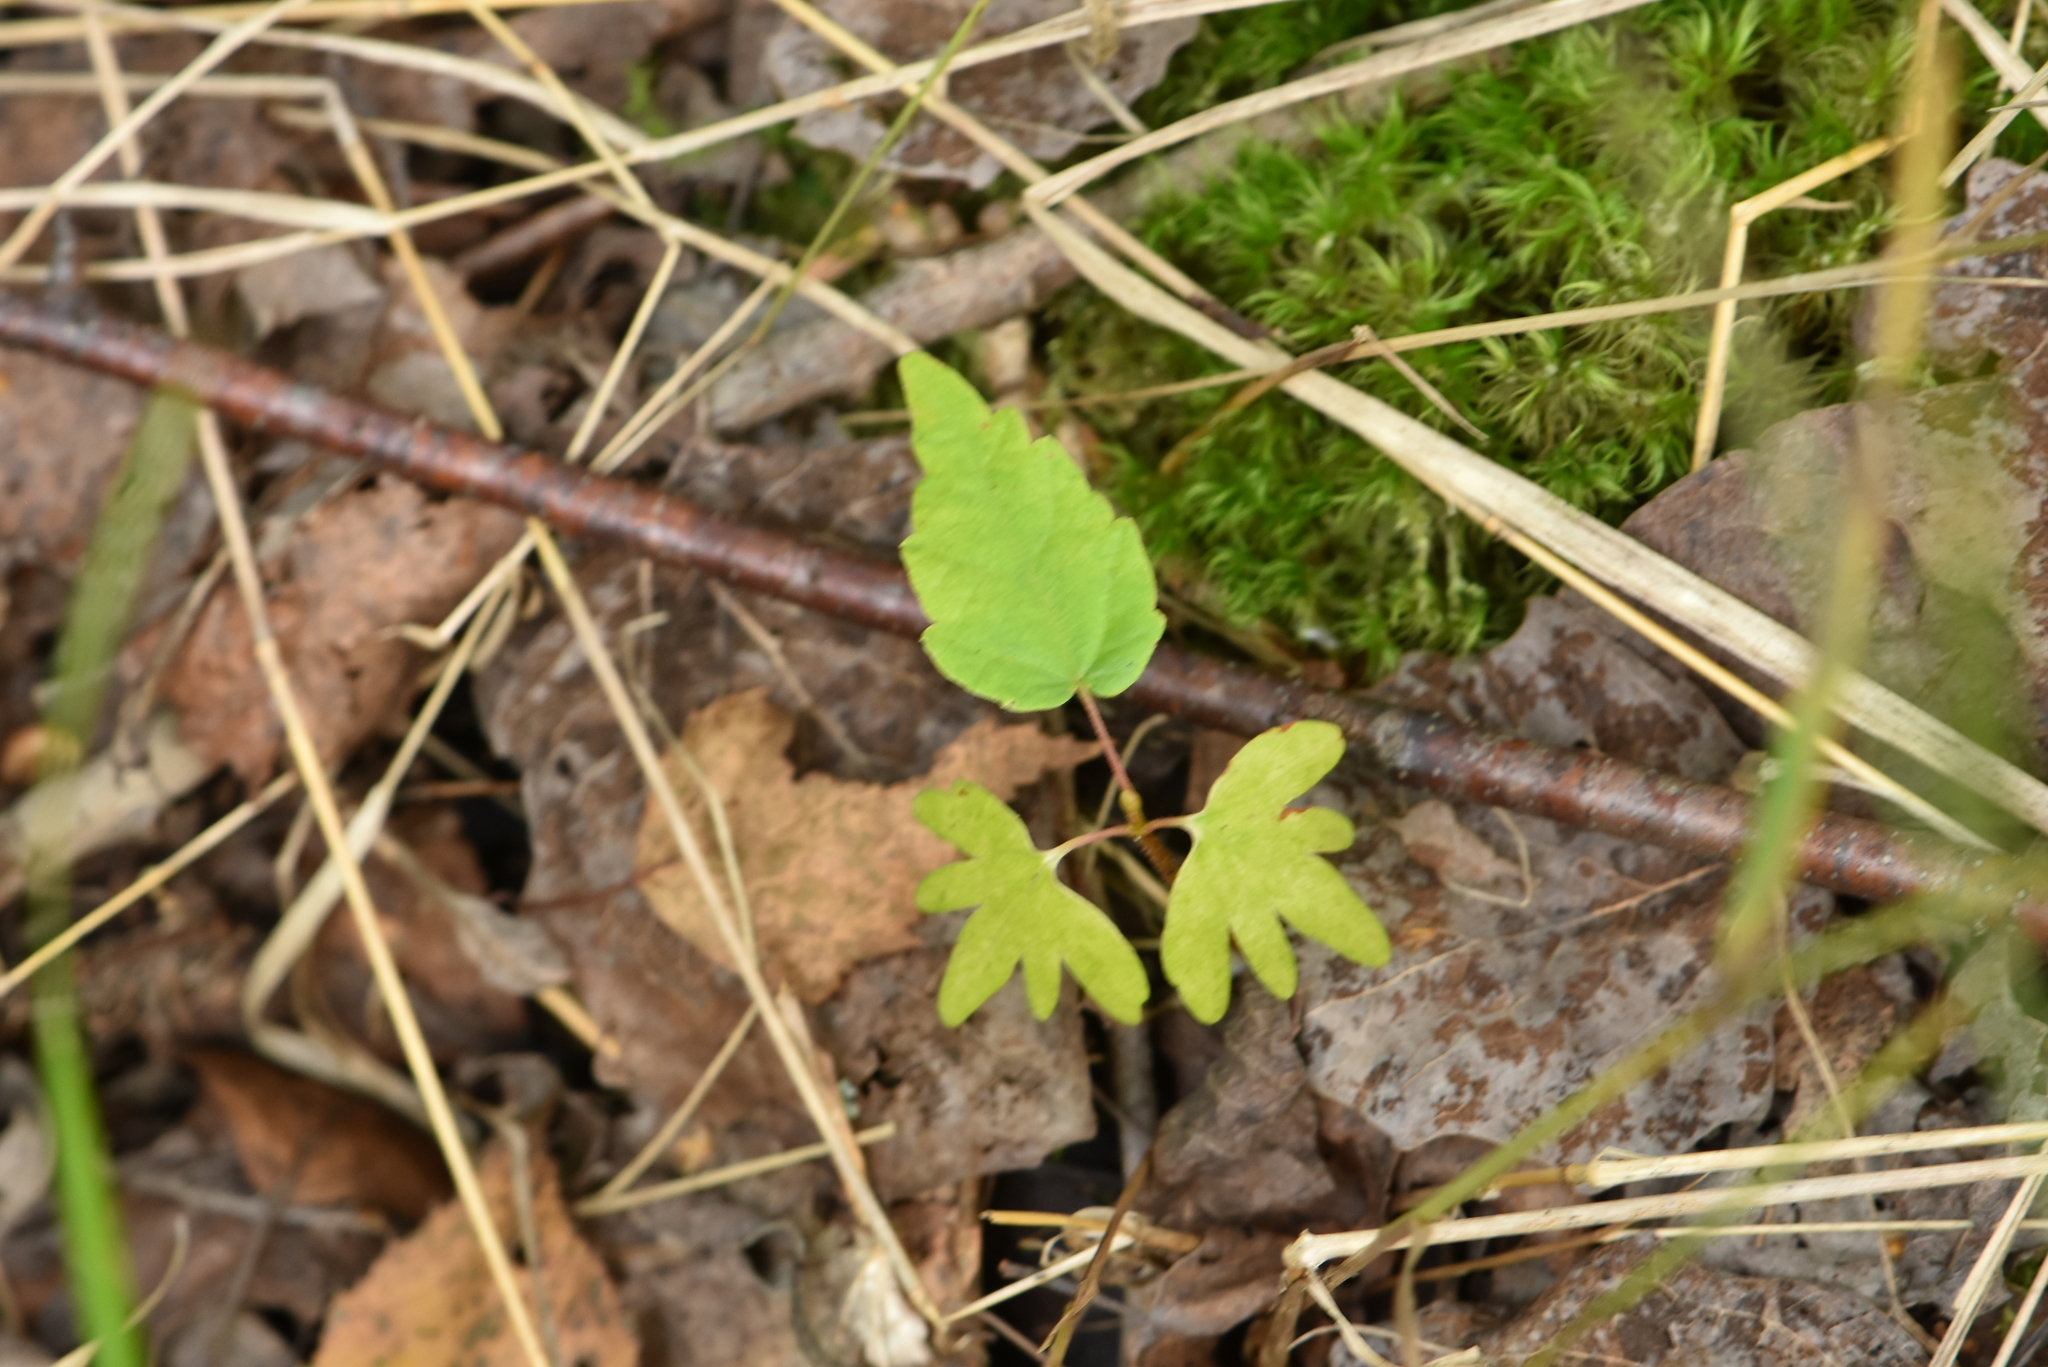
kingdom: Plantae
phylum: Tracheophyta
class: Magnoliopsida
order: Malvales
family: Malvaceae
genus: Tilia
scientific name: Tilia cordata
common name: Small-leaved lime
